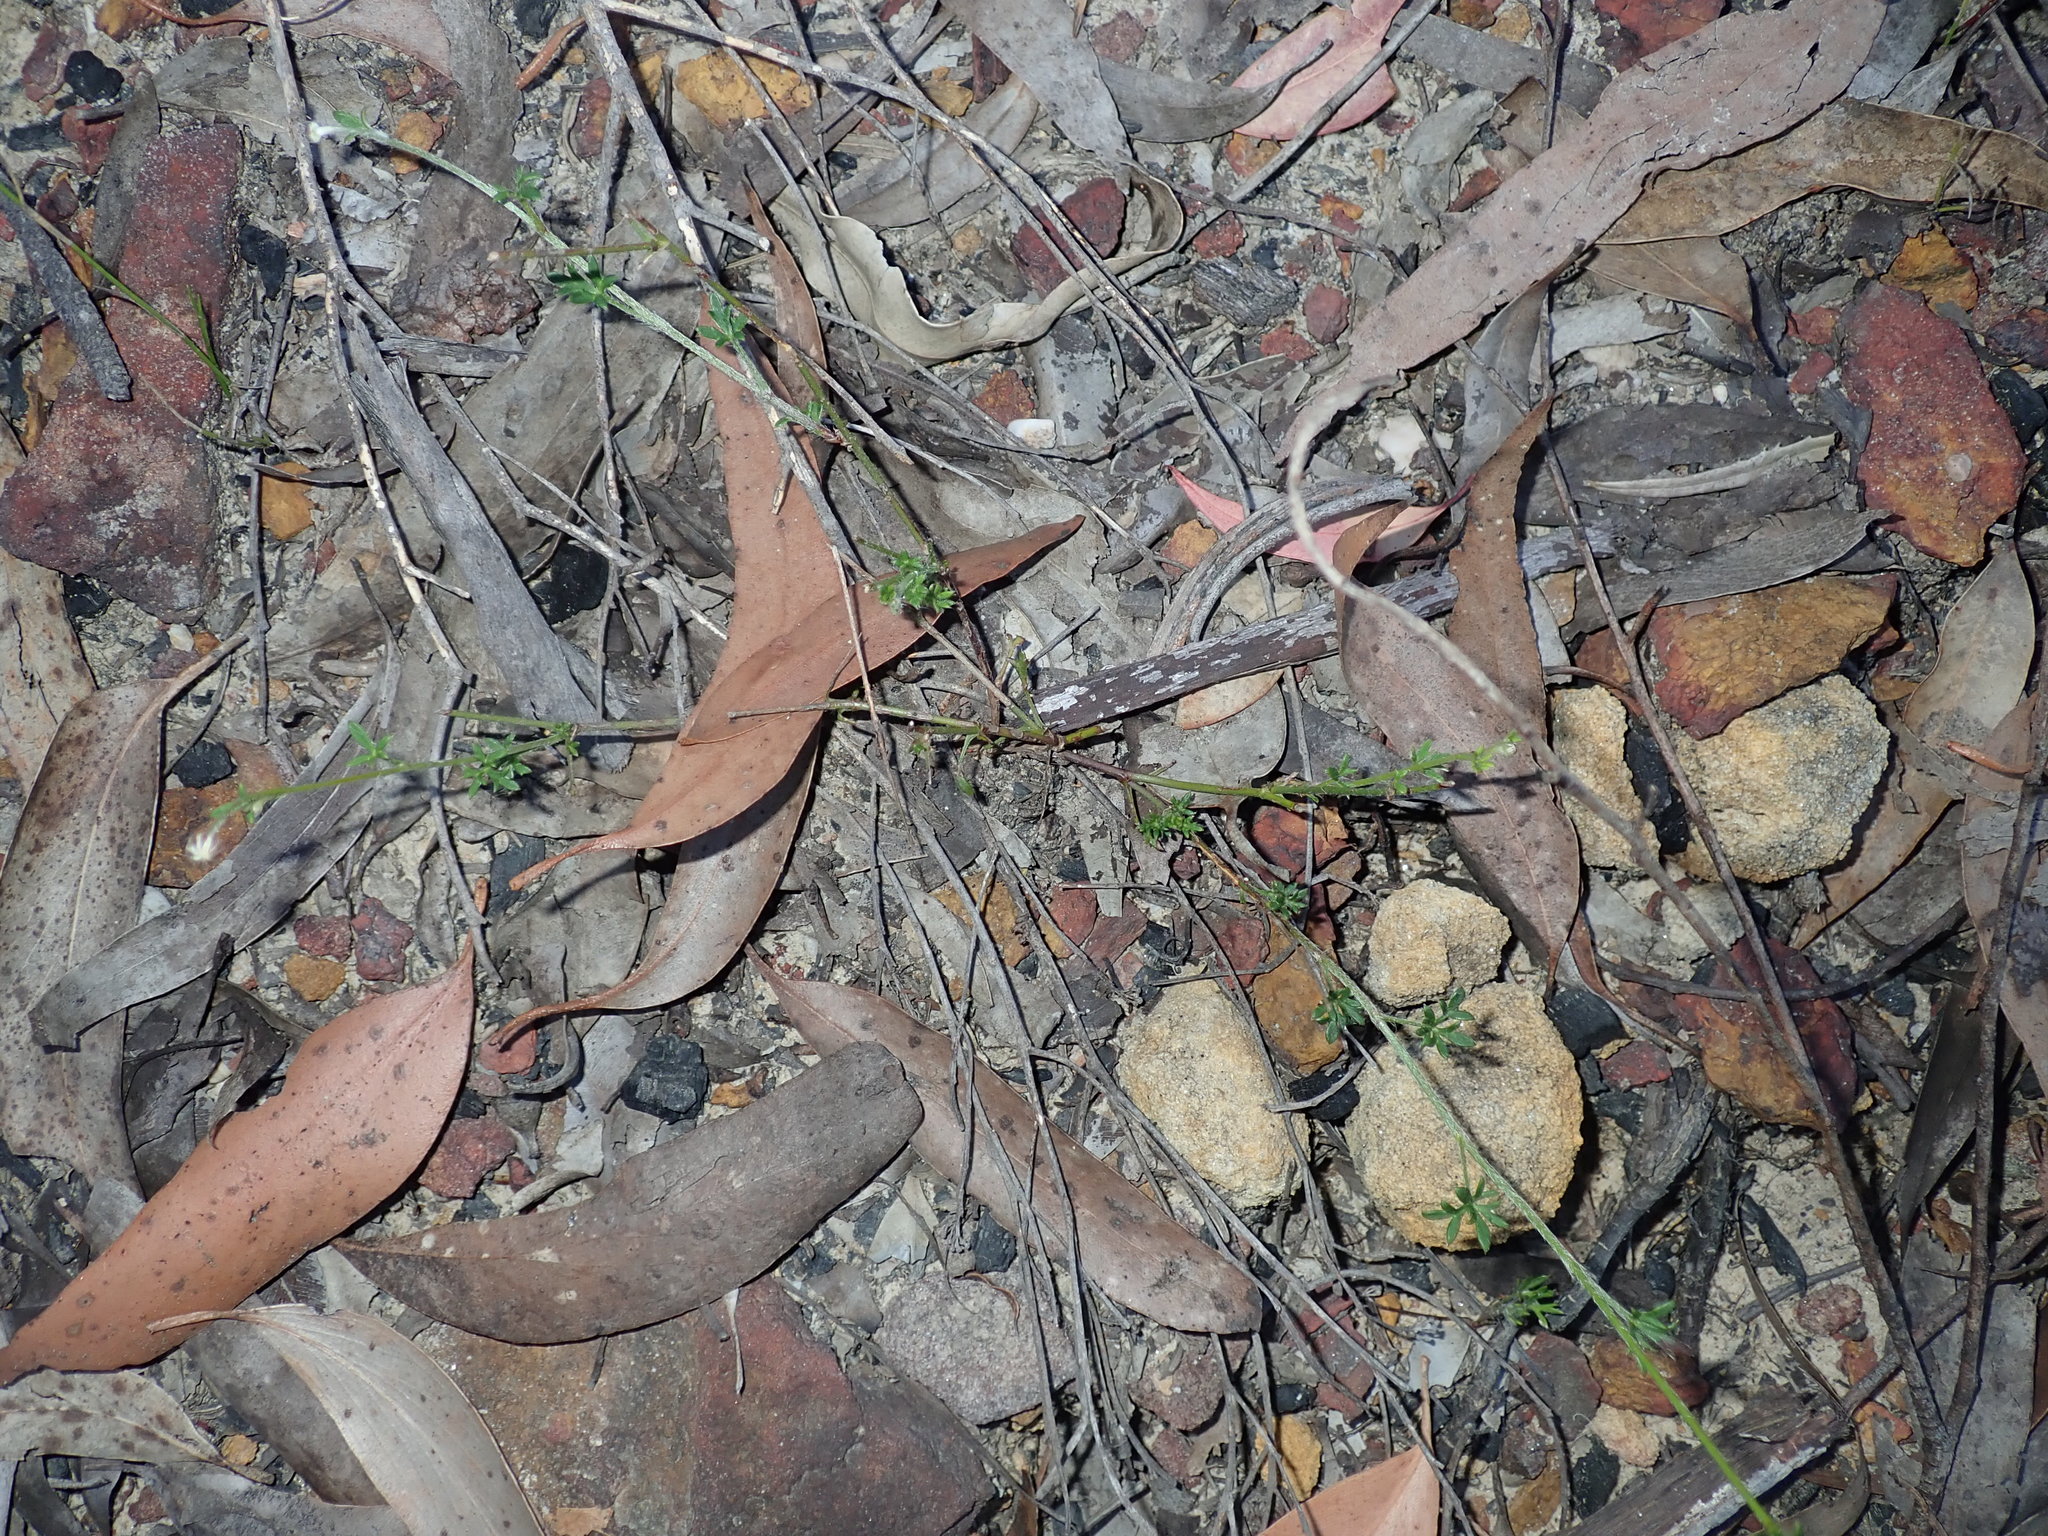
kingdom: Plantae
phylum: Tracheophyta
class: Magnoliopsida
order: Apiales
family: Apiaceae
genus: Actinotus
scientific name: Actinotus minor
